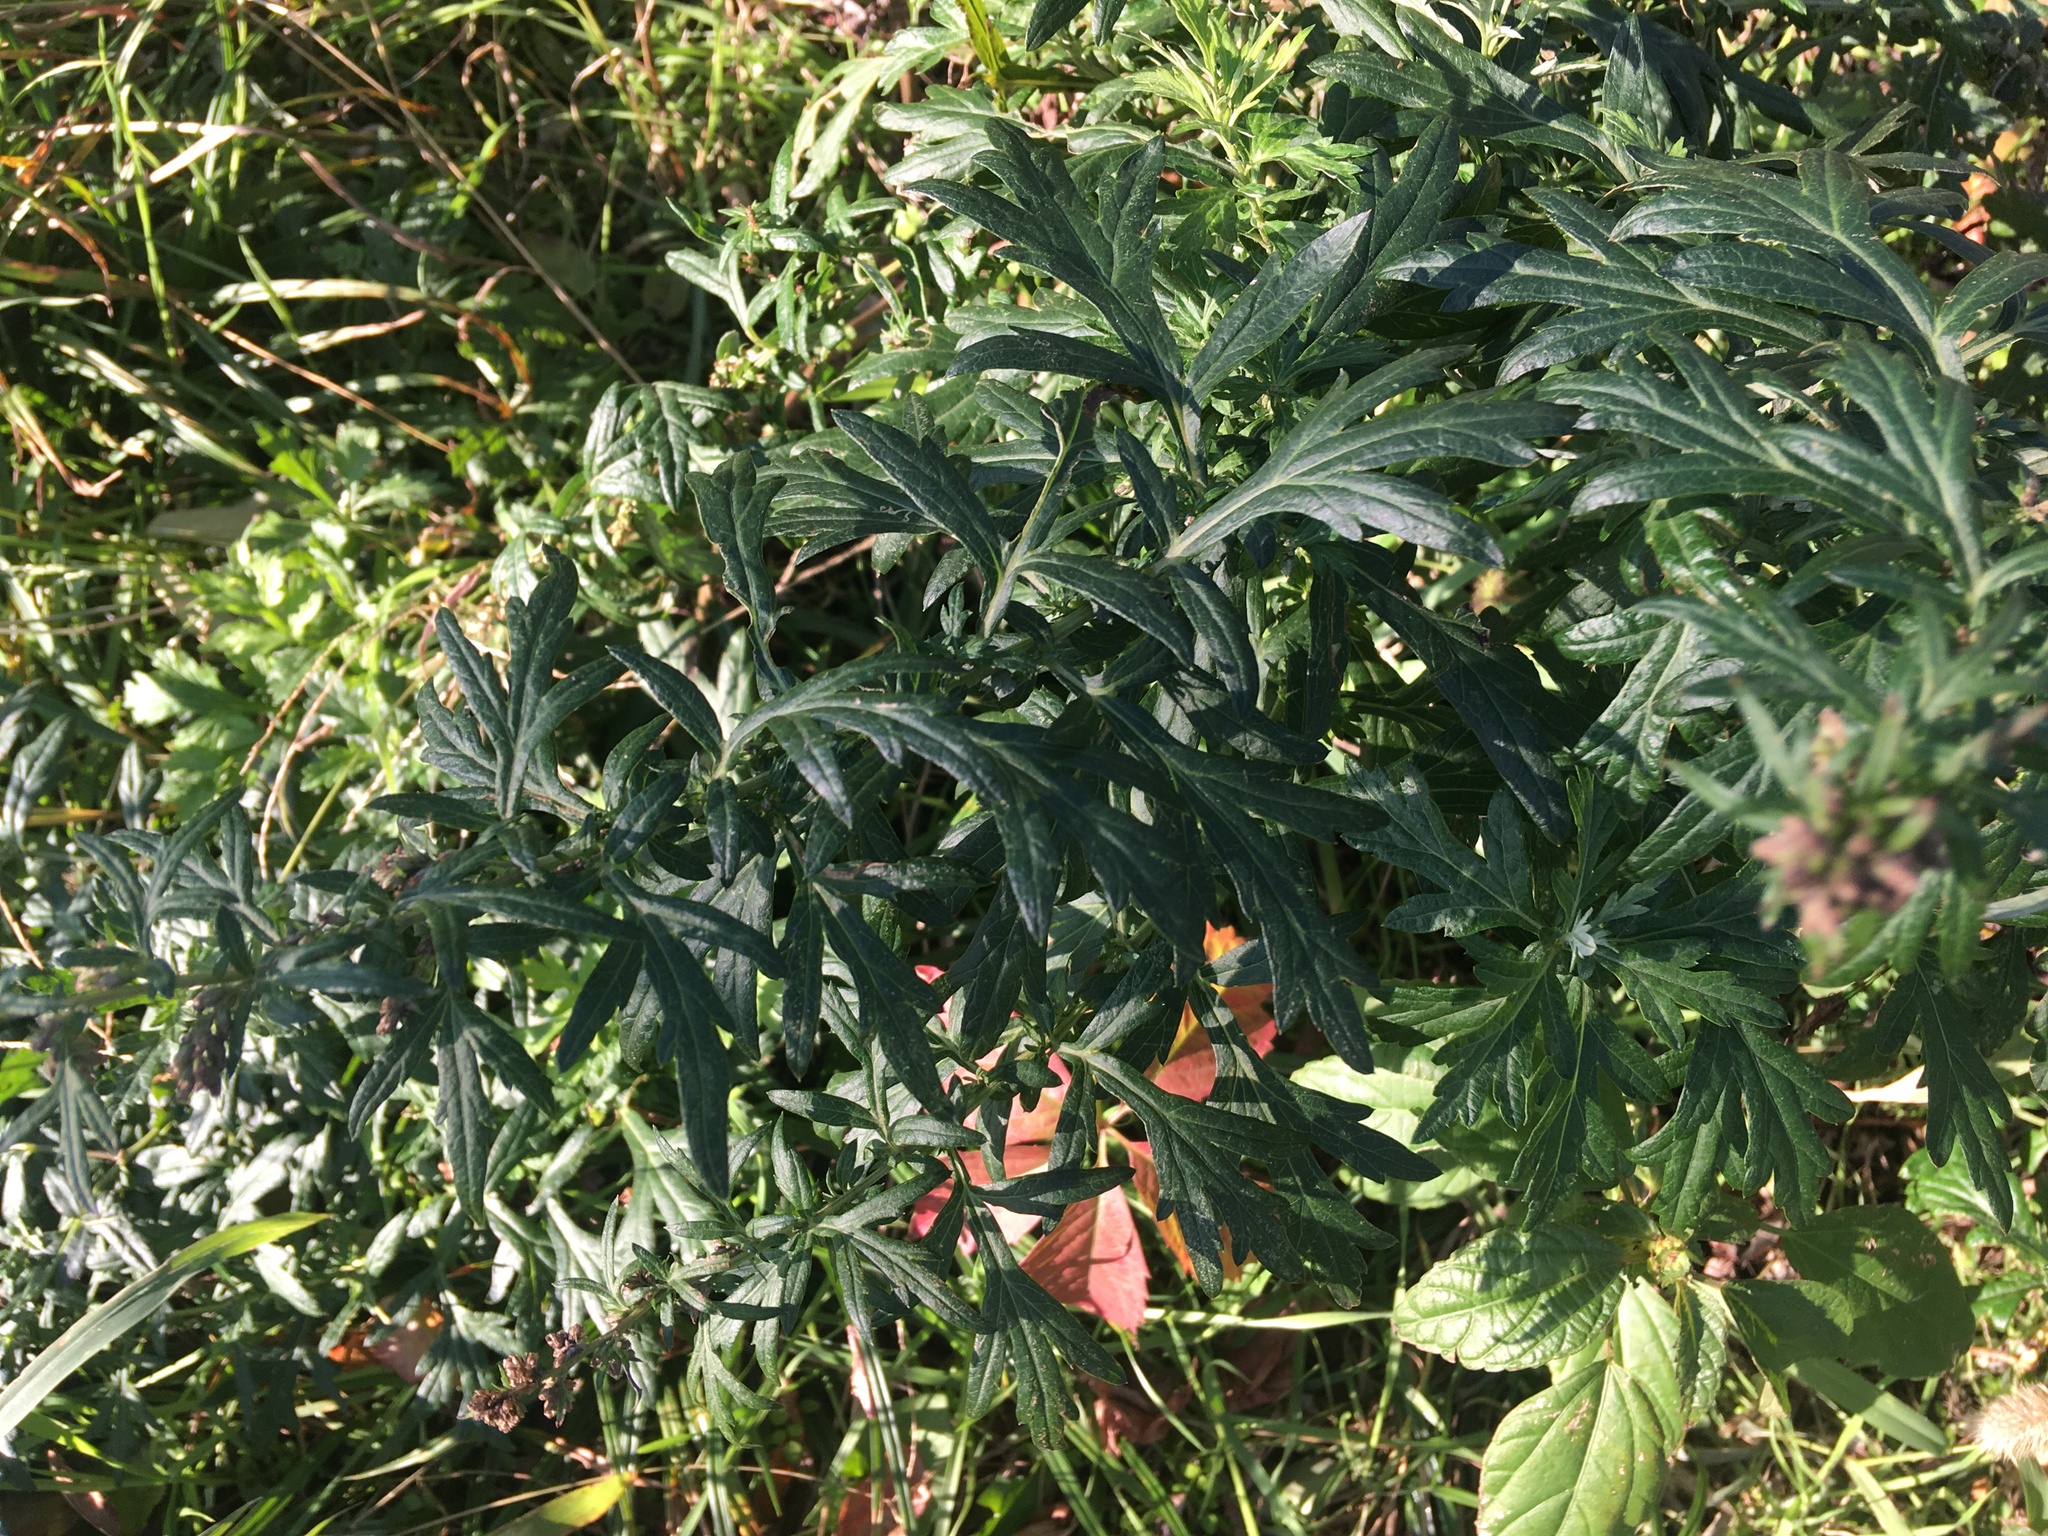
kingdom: Plantae
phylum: Tracheophyta
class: Magnoliopsida
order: Asterales
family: Asteraceae
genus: Artemisia
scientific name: Artemisia vulgaris
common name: Mugwort
